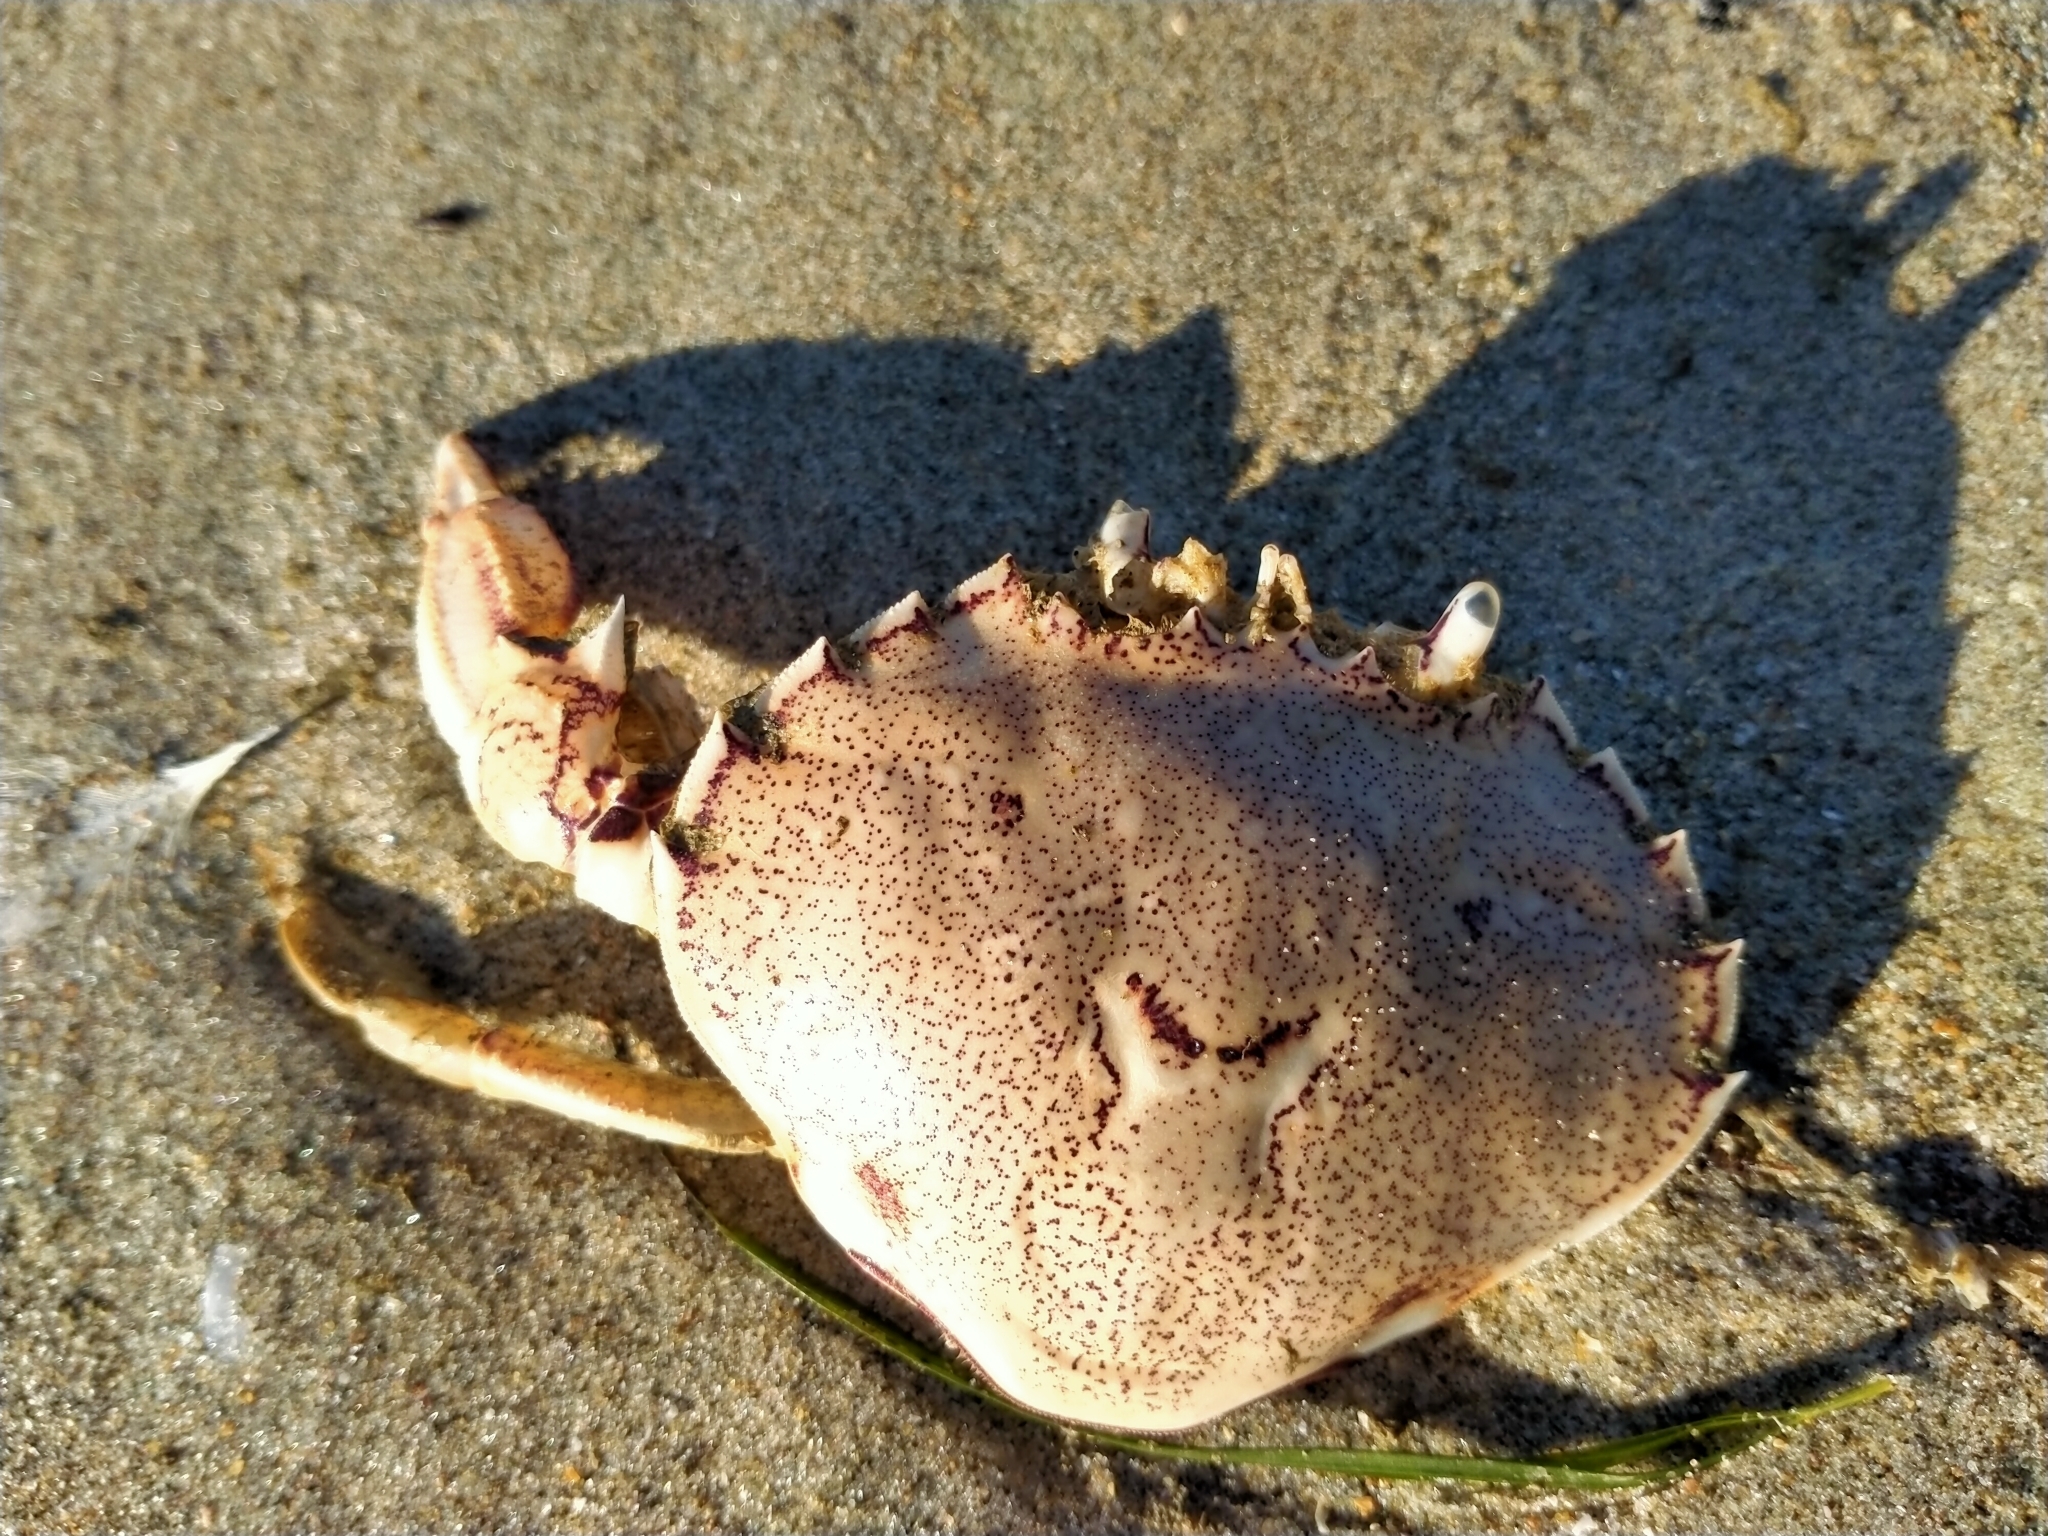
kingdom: Animalia
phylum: Arthropoda
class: Malacostraca
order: Decapoda
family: Ovalipidae
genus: Ovalipes
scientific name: Ovalipes catharus
